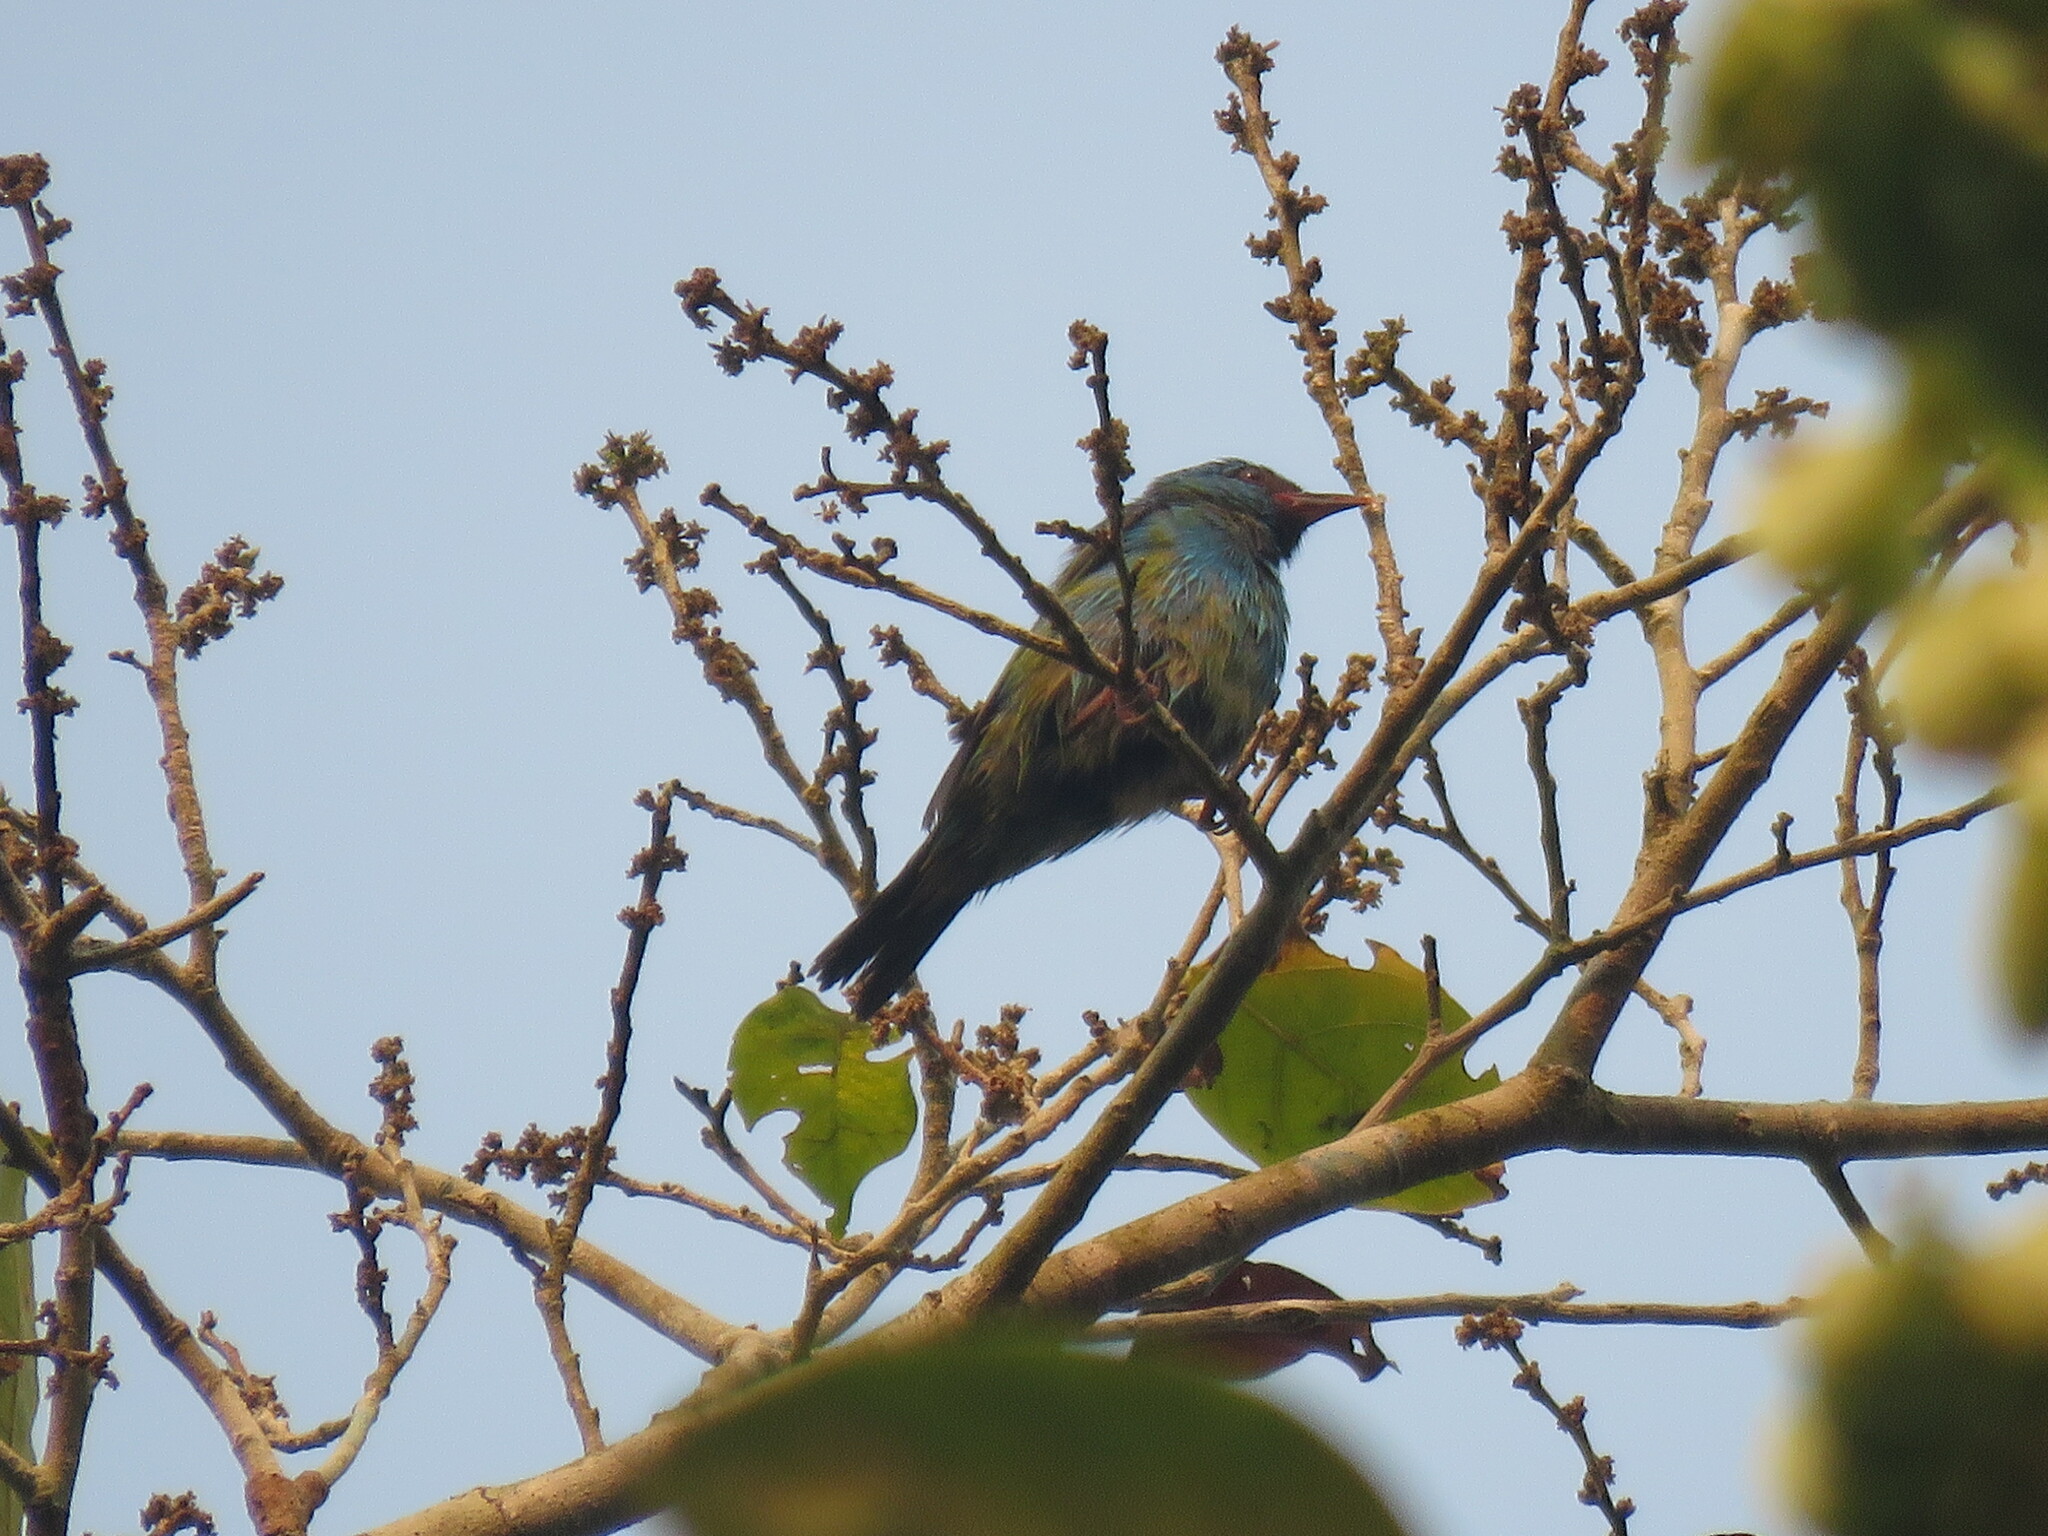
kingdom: Animalia
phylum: Chordata
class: Aves
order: Passeriformes
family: Thraupidae
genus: Dacnis
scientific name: Dacnis cayana
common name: Blue dacnis
